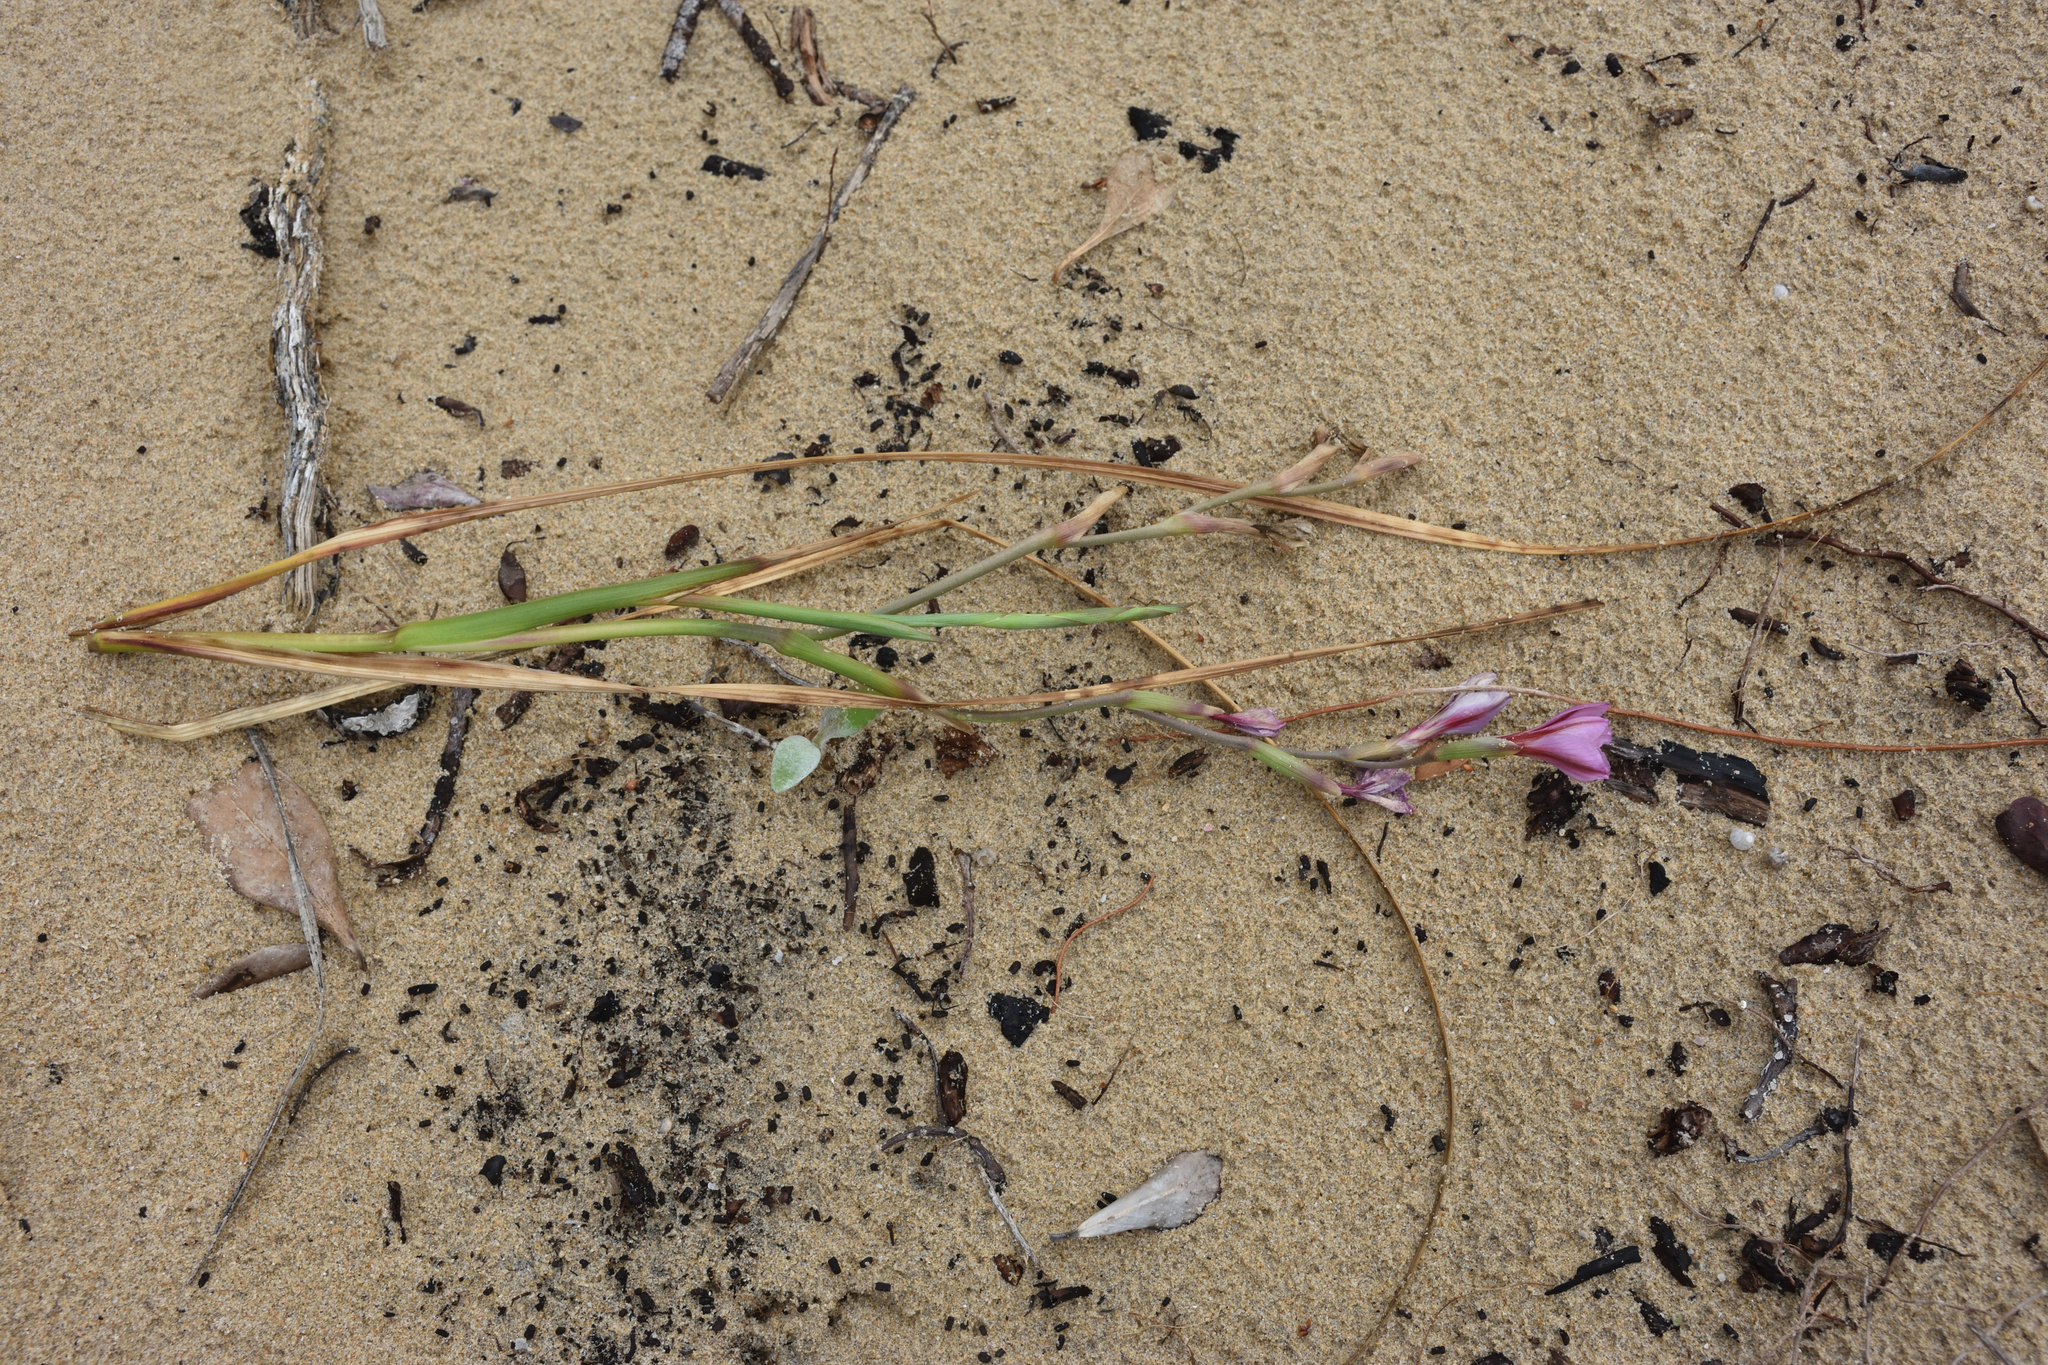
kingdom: Plantae
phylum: Tracheophyta
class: Liliopsida
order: Asparagales
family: Iridaceae
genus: Gladiolus
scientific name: Gladiolus gueinzii
